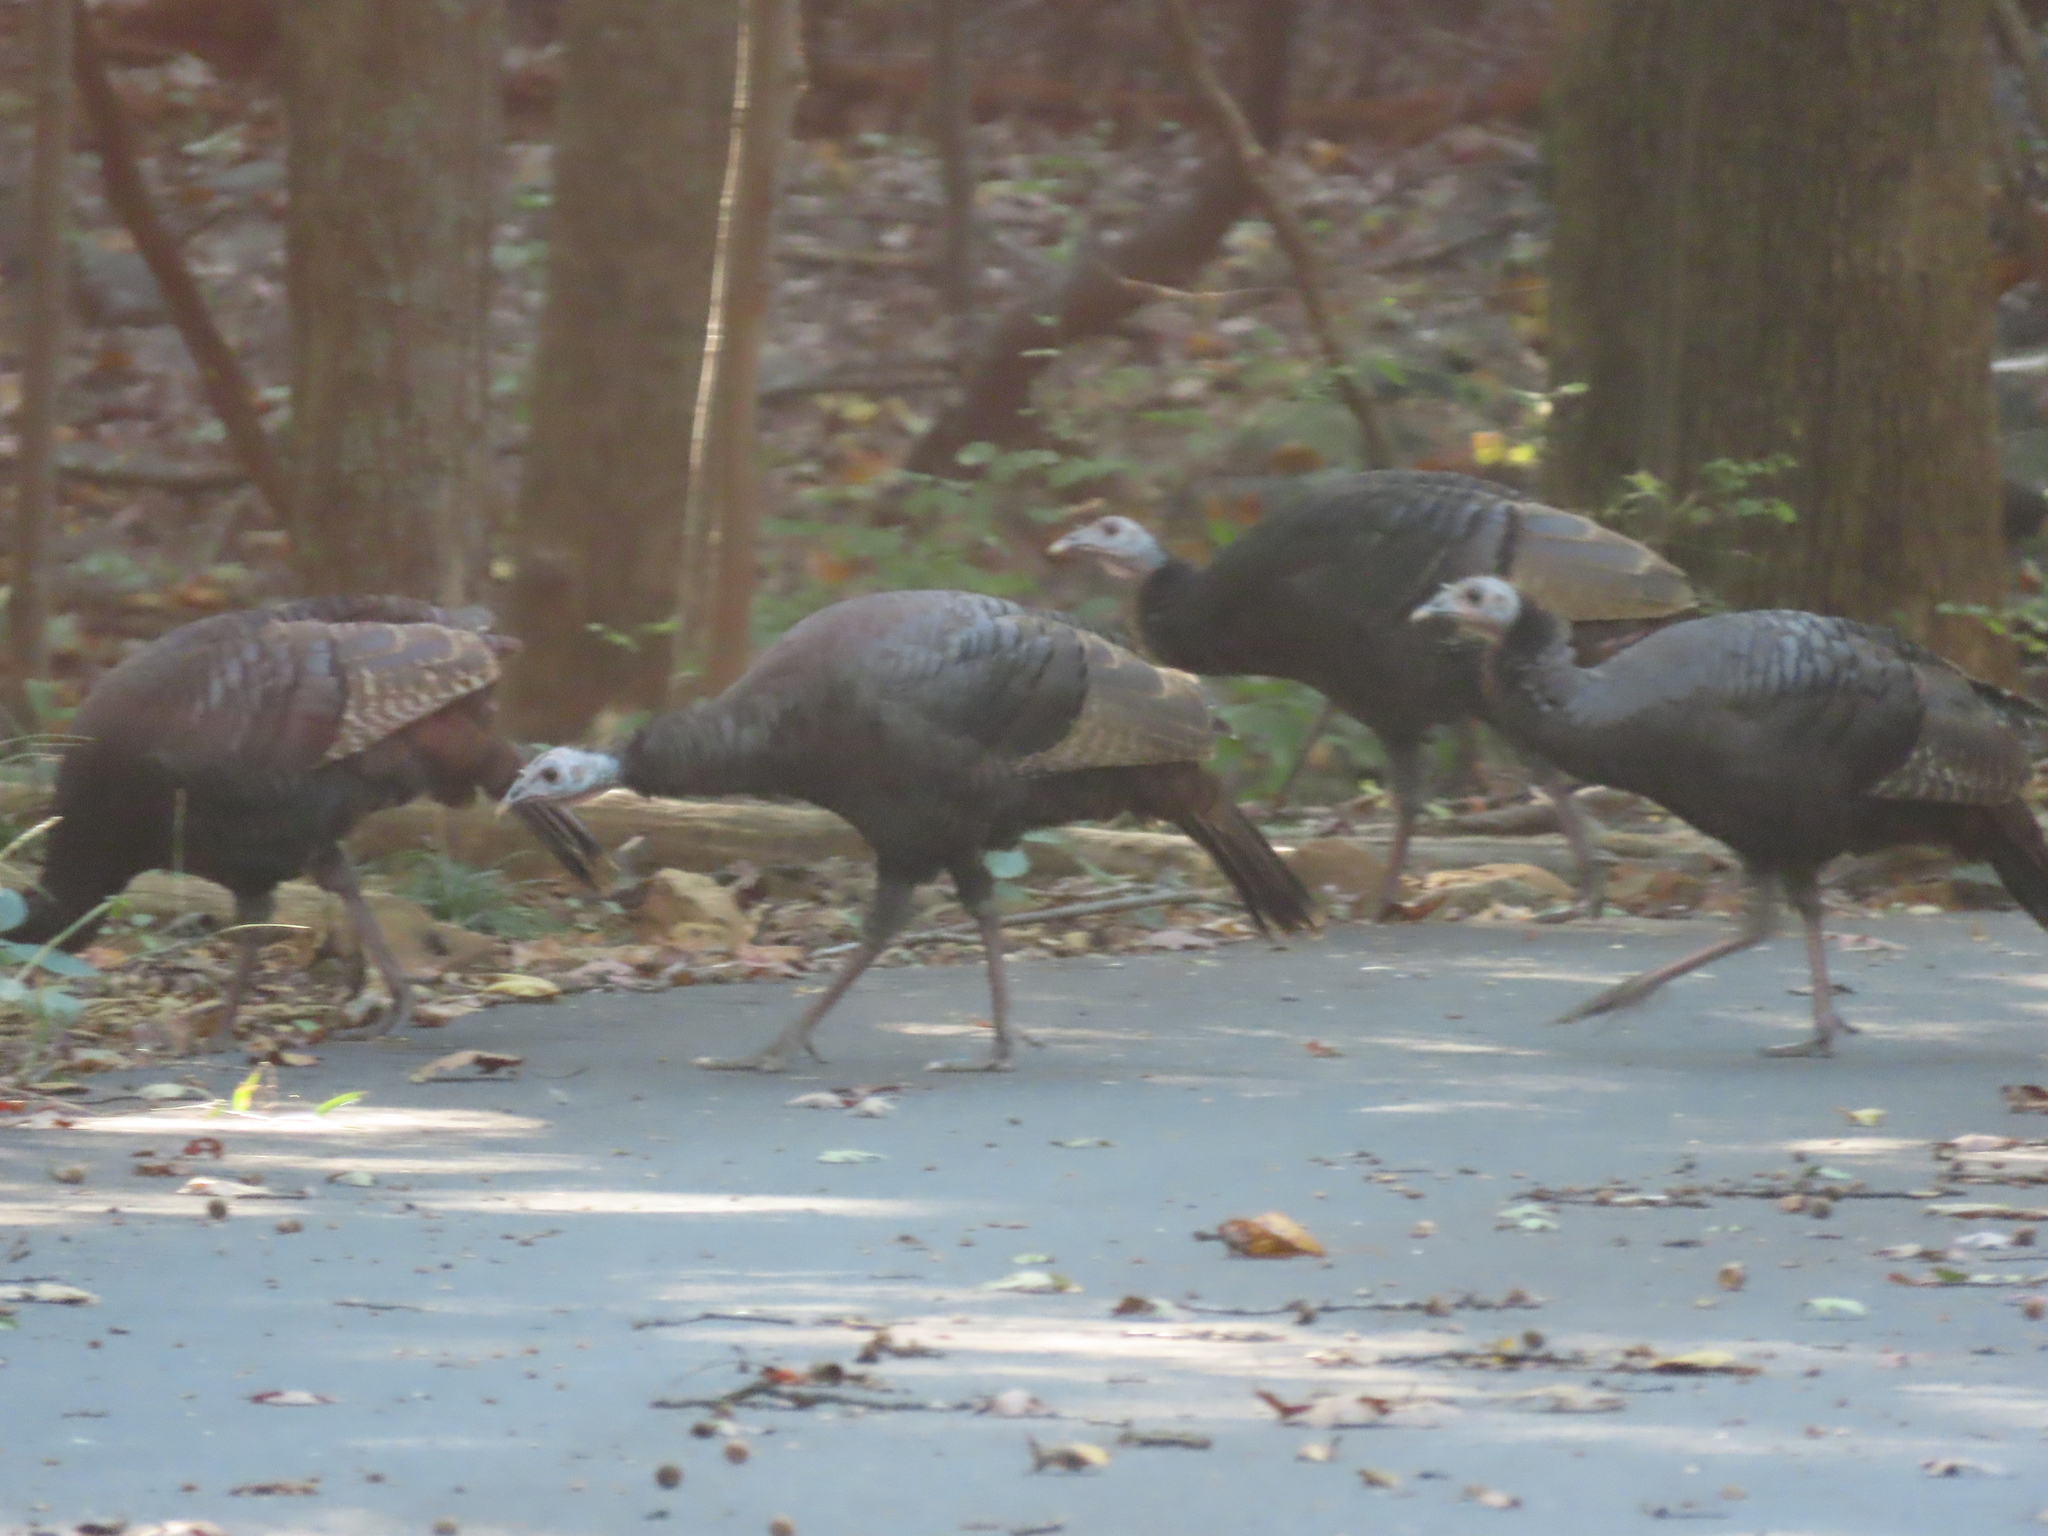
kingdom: Animalia
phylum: Chordata
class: Aves
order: Galliformes
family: Phasianidae
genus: Meleagris
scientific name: Meleagris gallopavo
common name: Wild turkey
